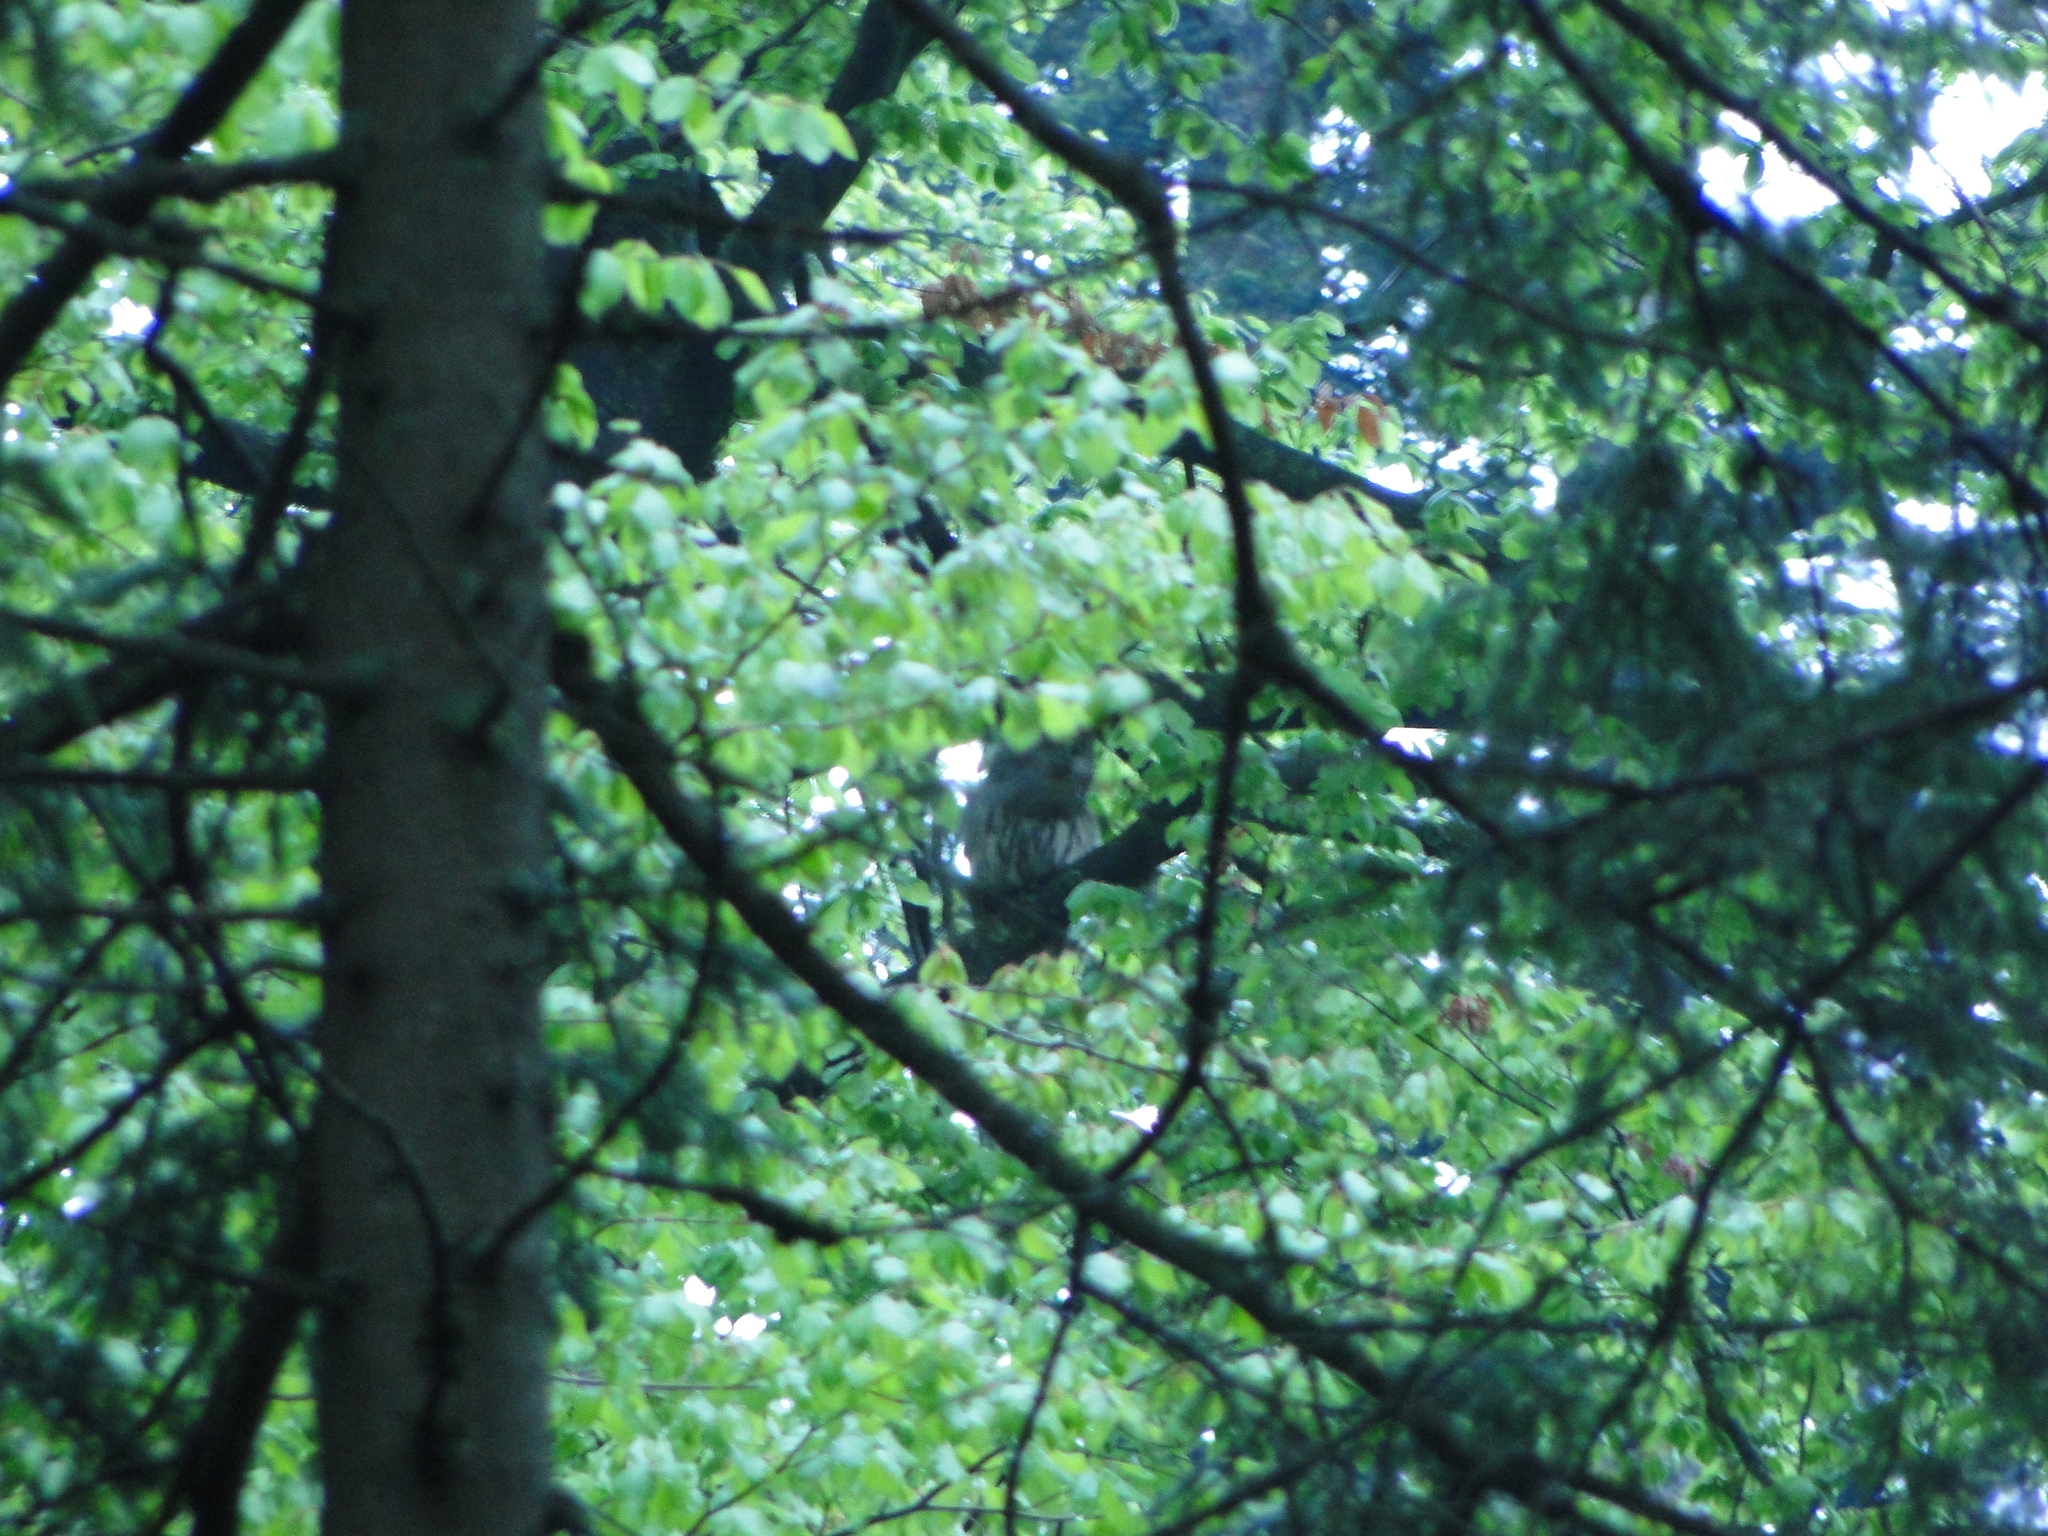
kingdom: Animalia
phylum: Chordata
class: Aves
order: Strigiformes
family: Strigidae
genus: Strix
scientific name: Strix uralensis
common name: Ural owl
